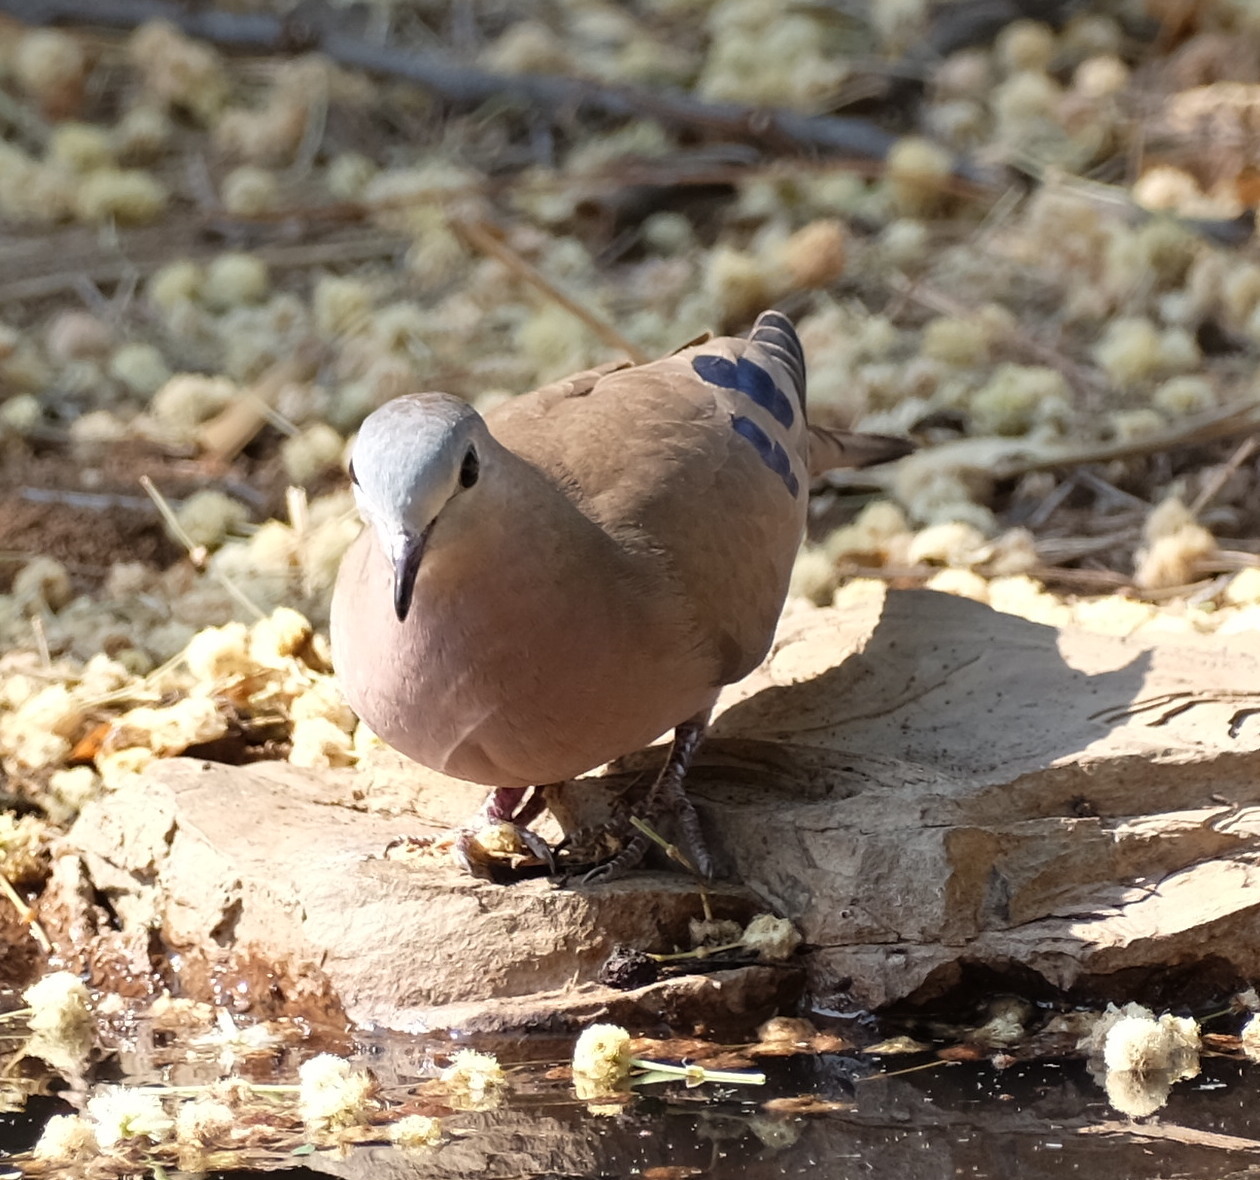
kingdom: Animalia
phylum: Chordata
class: Aves
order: Columbiformes
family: Columbidae
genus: Turtur
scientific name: Turtur chalcospilos
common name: Emerald-spotted wood dove
